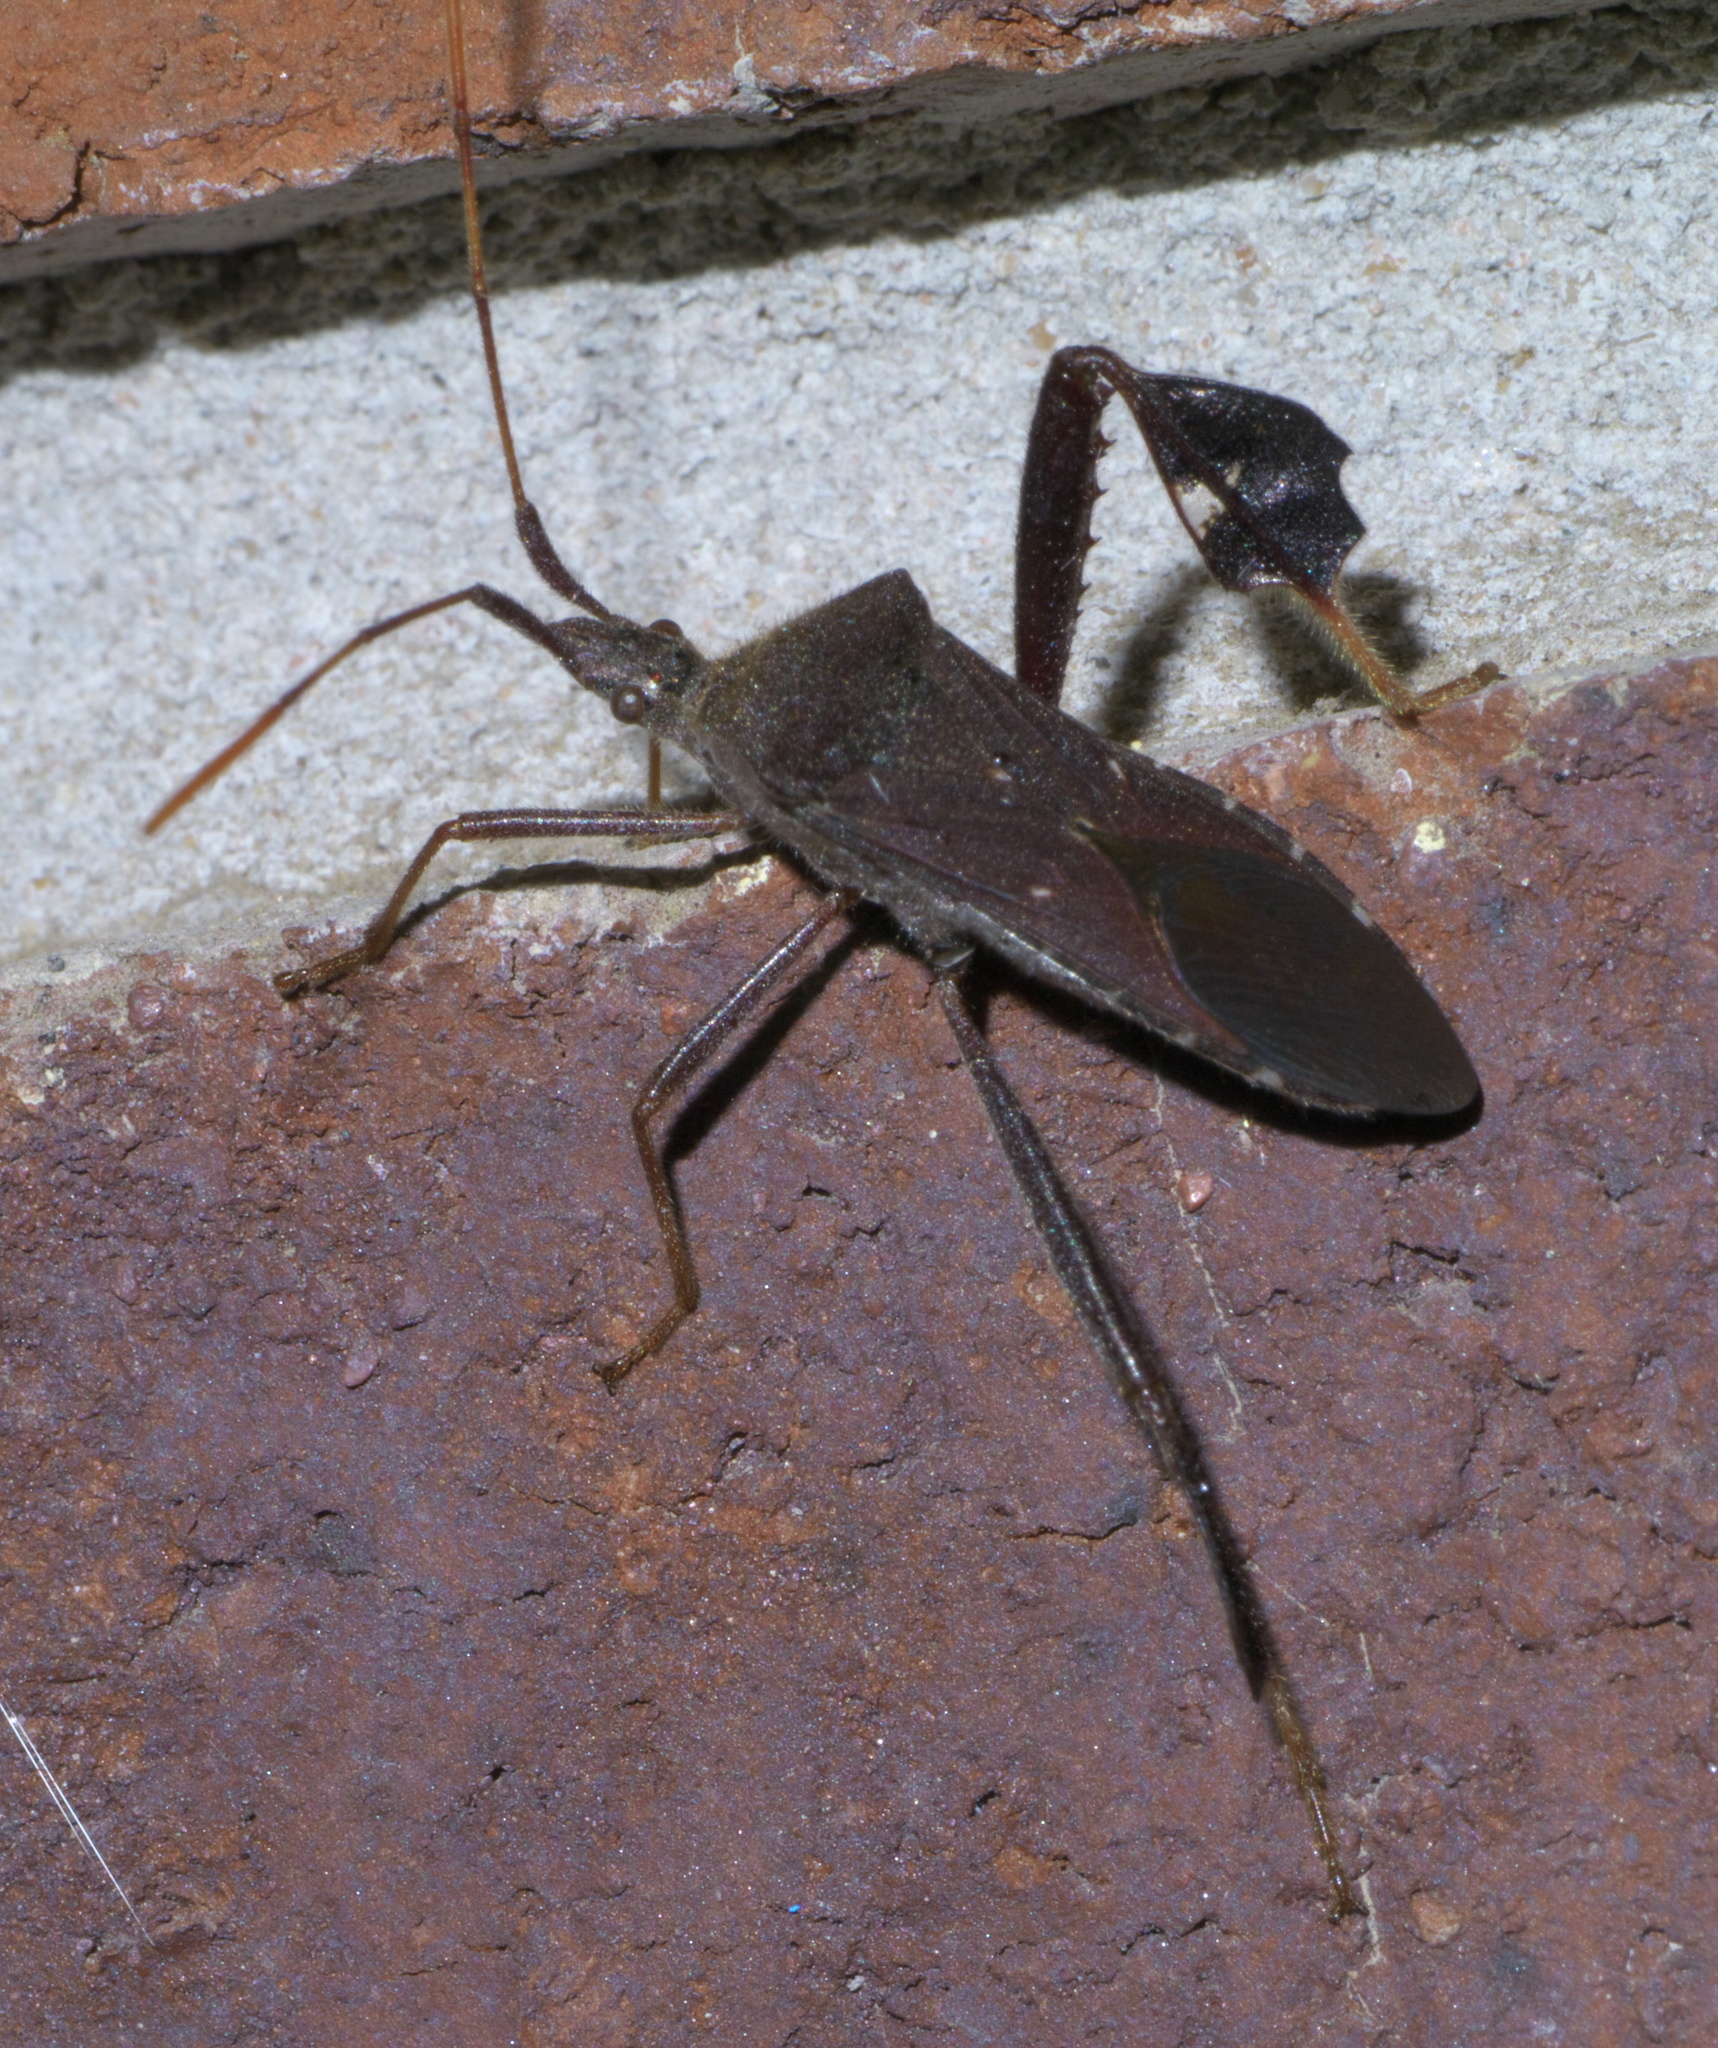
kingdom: Animalia
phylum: Arthropoda
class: Insecta
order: Hemiptera
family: Coreidae
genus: Leptoglossus
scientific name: Leptoglossus oppositus
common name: Northern leaf-footed bug
